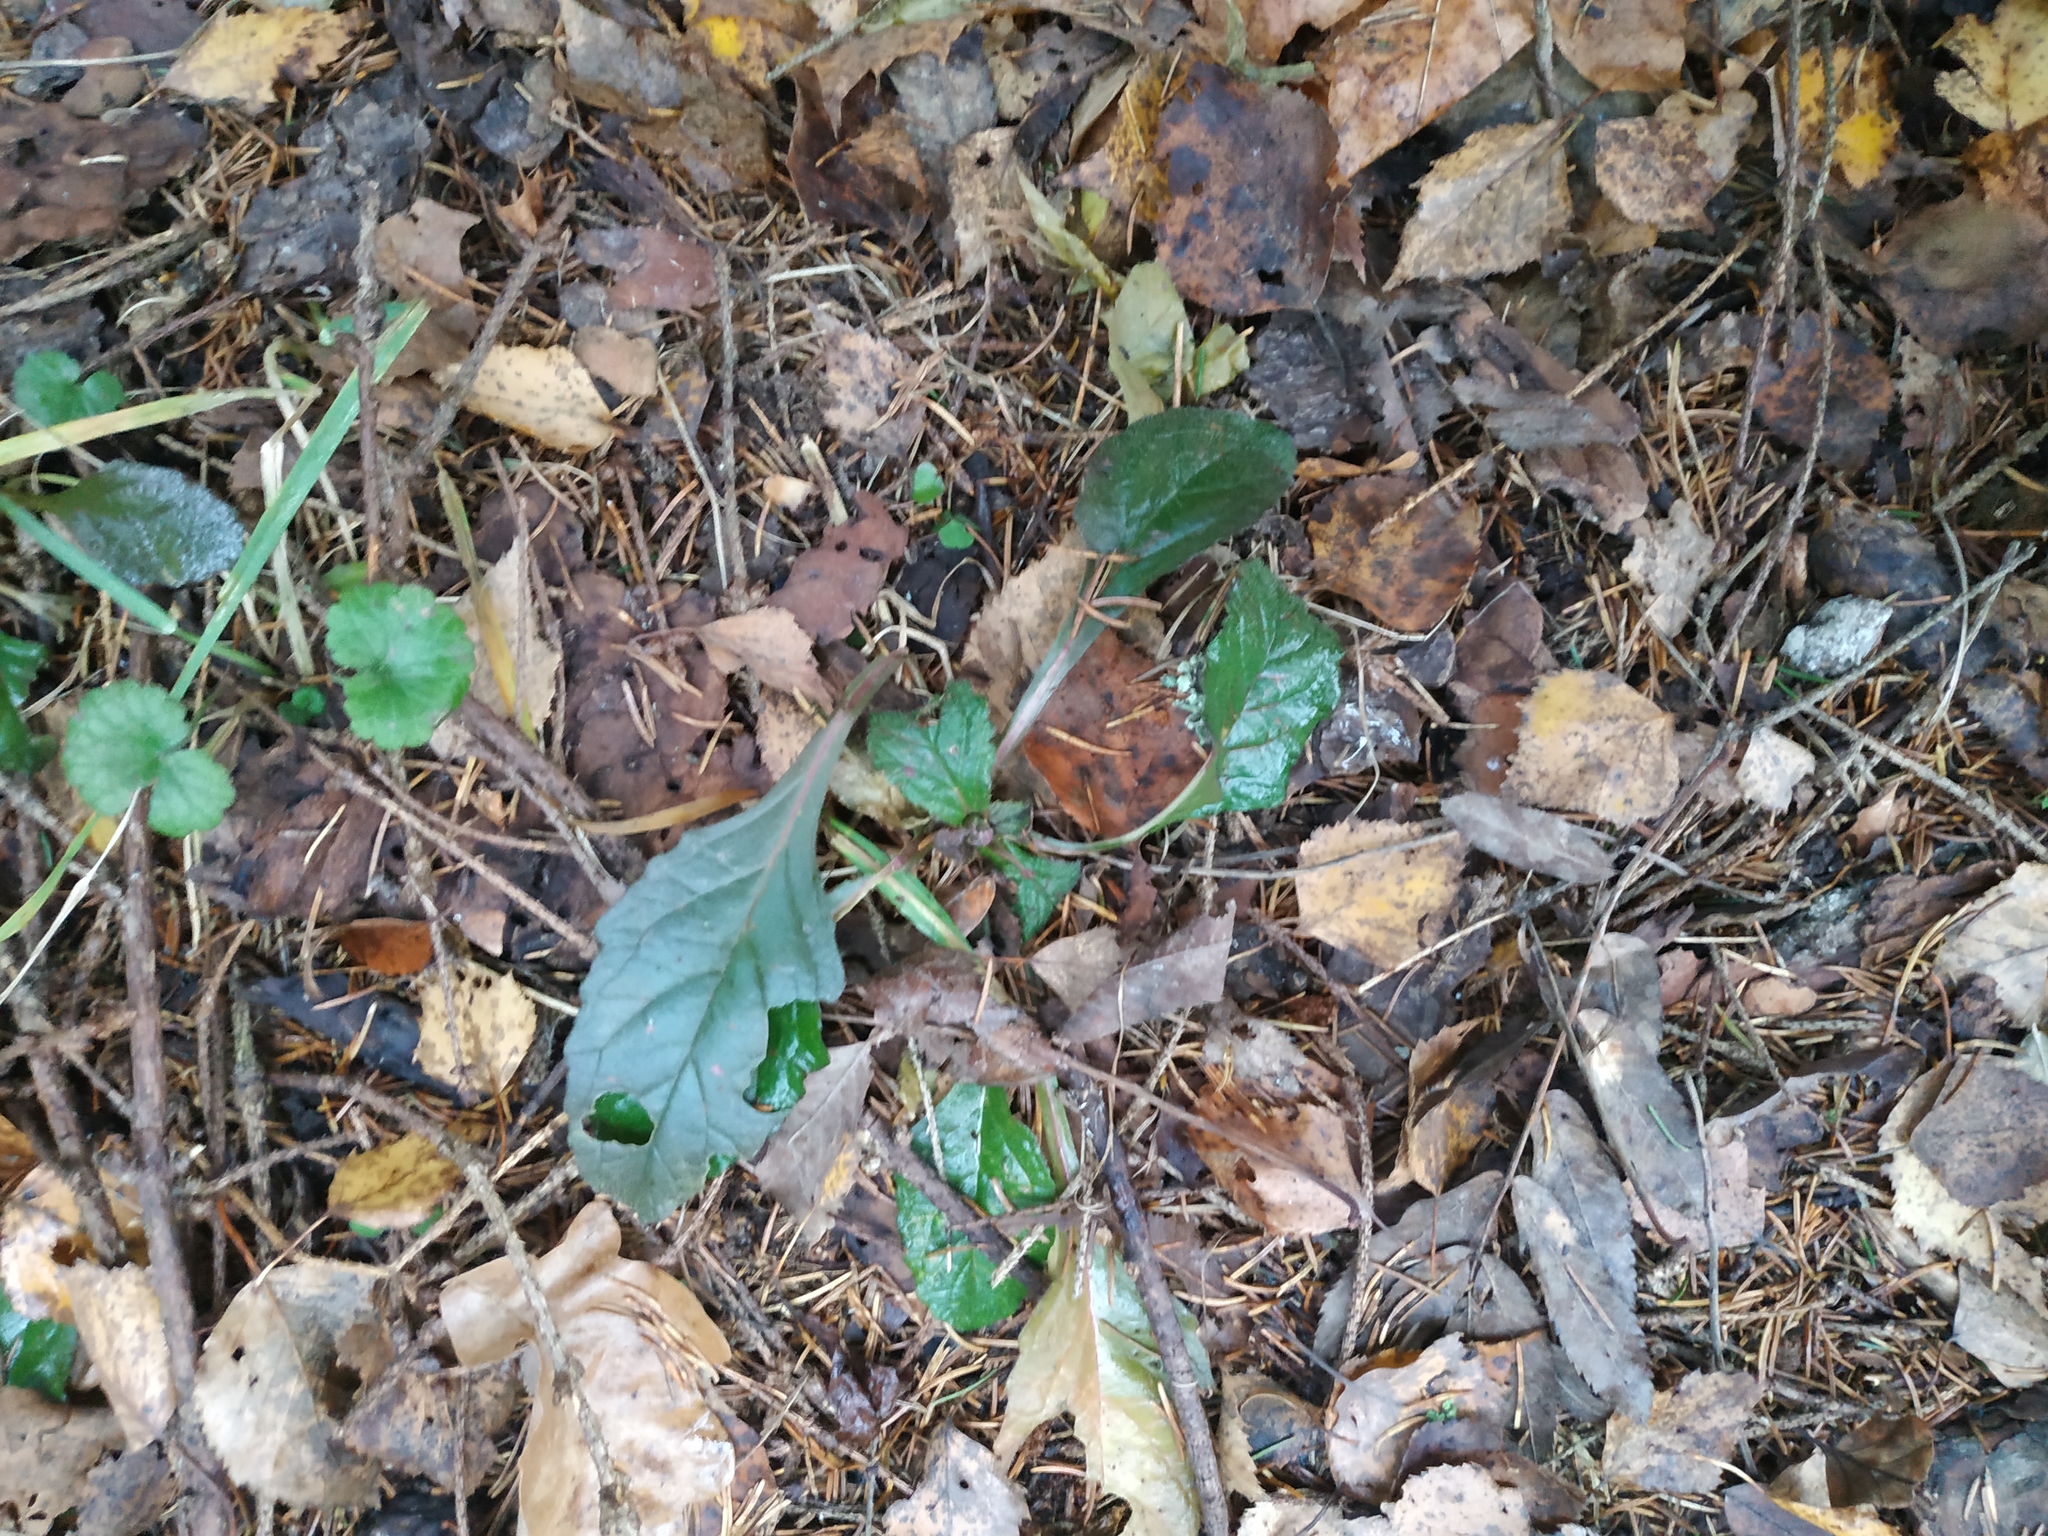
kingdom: Plantae
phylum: Tracheophyta
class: Magnoliopsida
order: Lamiales
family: Lamiaceae
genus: Ajuga
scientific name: Ajuga reptans
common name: Bugle
